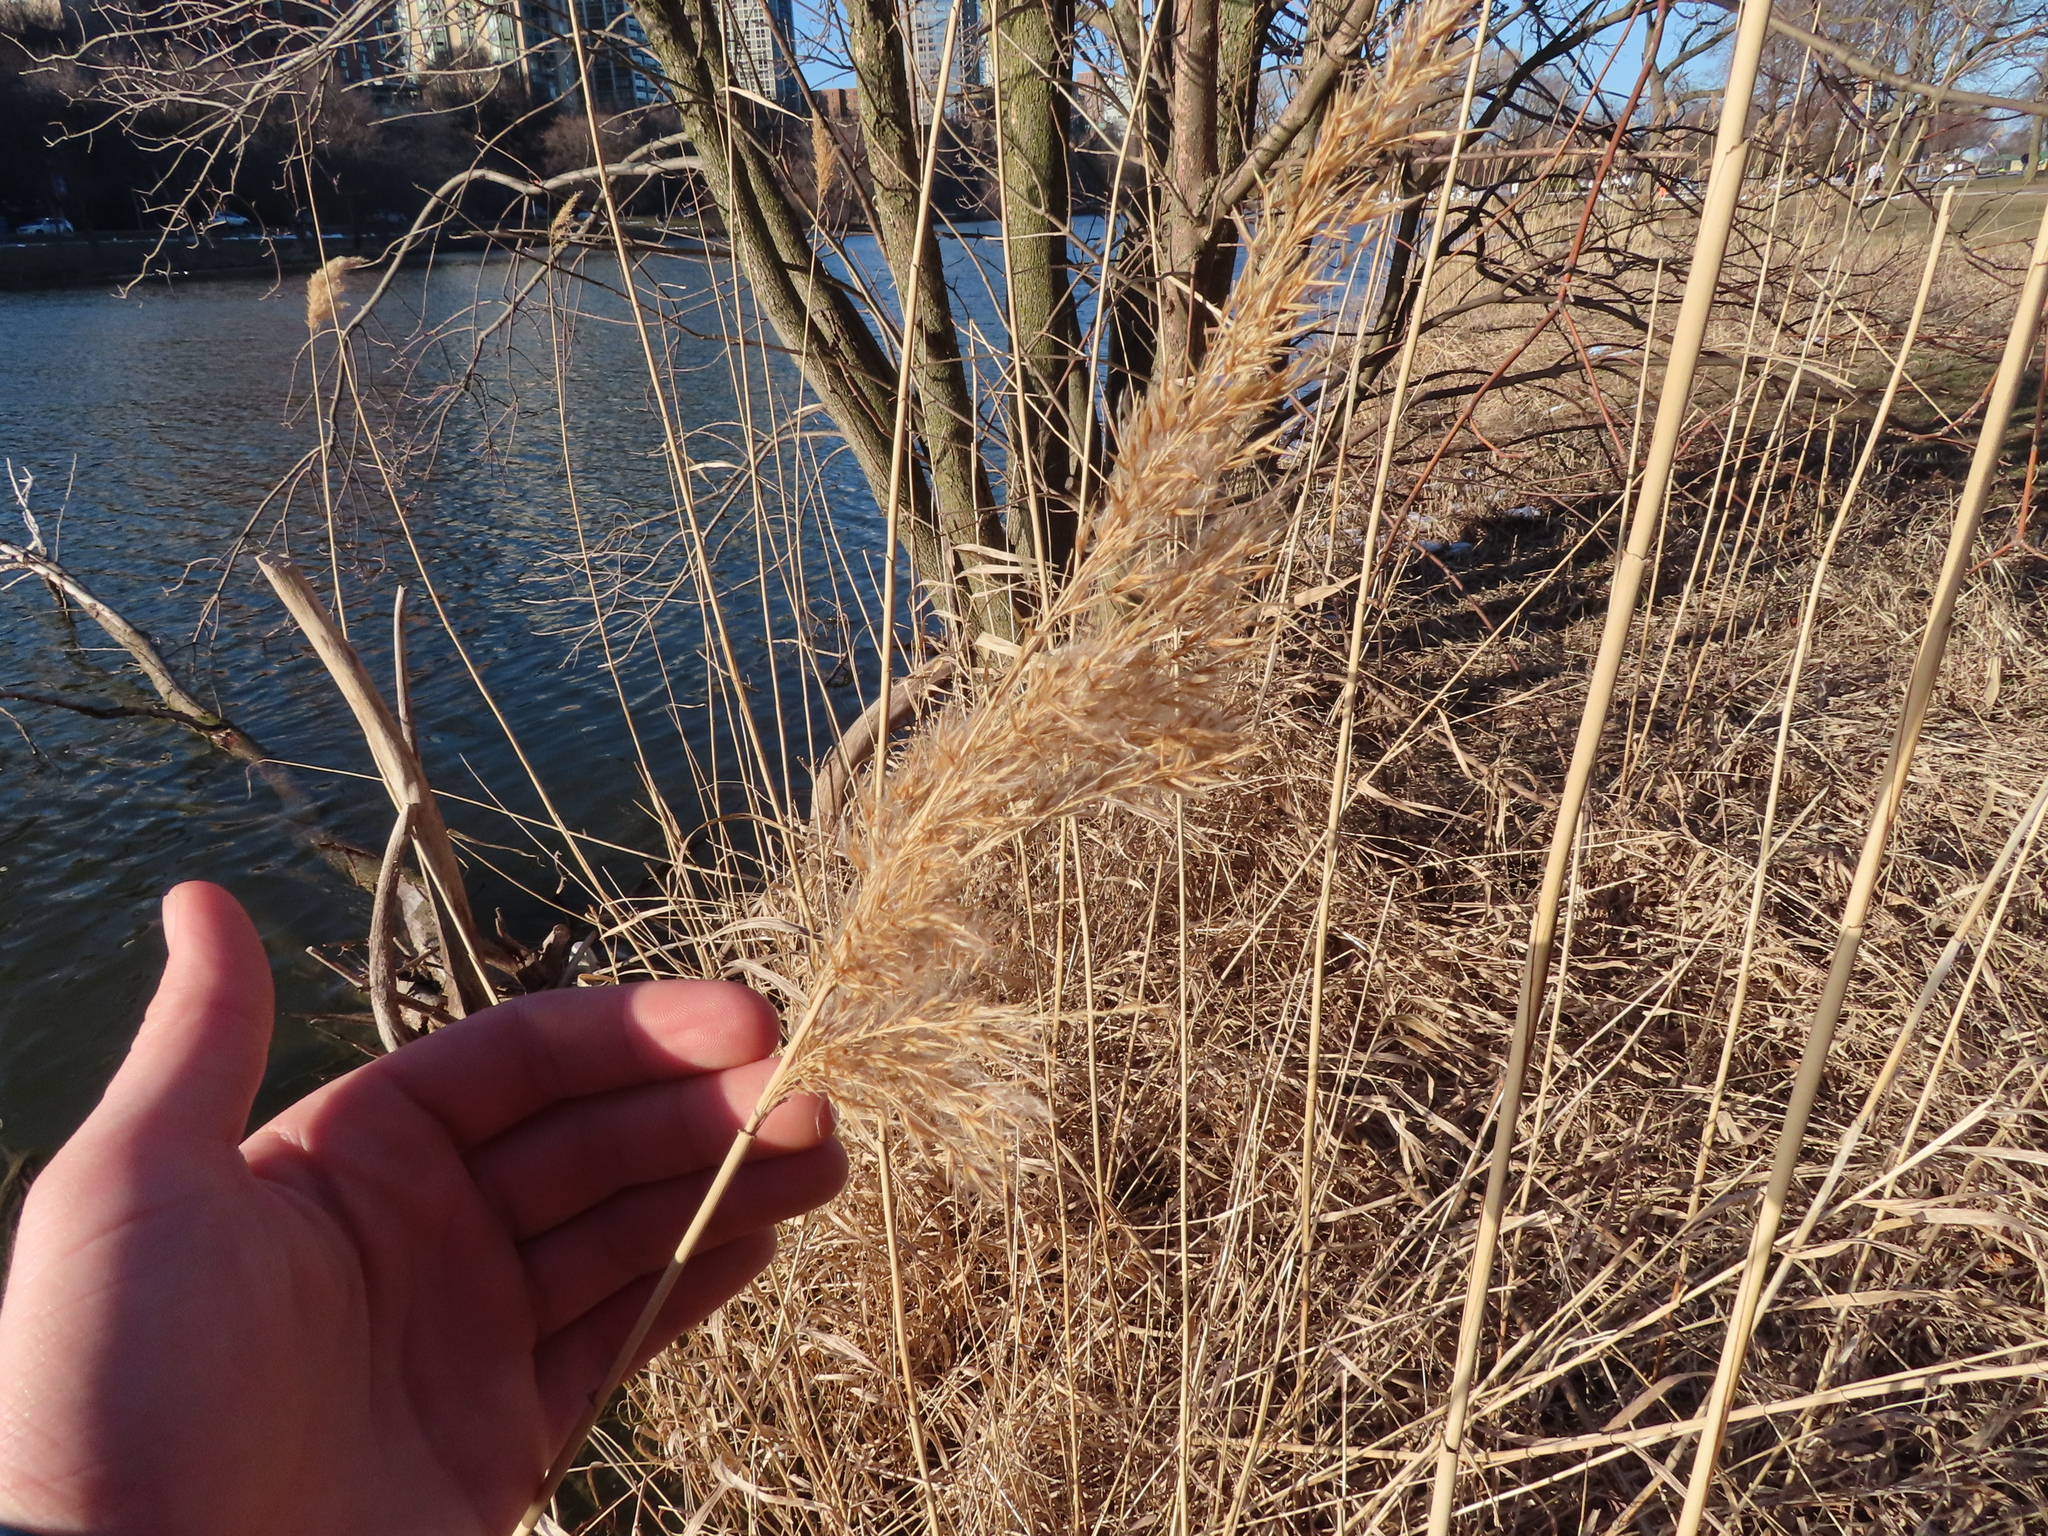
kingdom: Plantae
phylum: Tracheophyta
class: Liliopsida
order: Poales
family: Poaceae
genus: Phragmites
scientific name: Phragmites australis
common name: Common reed
